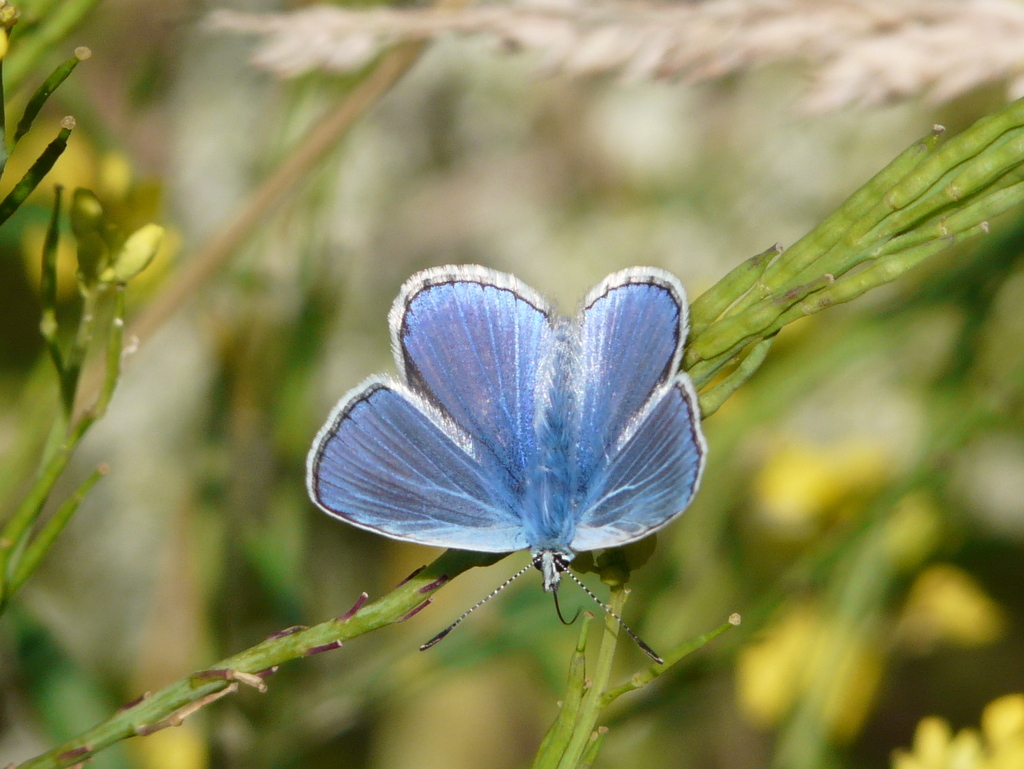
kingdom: Animalia
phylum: Arthropoda
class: Insecta
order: Lepidoptera
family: Lycaenidae
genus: Polyommatus
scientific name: Polyommatus icarus
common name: Common blue
